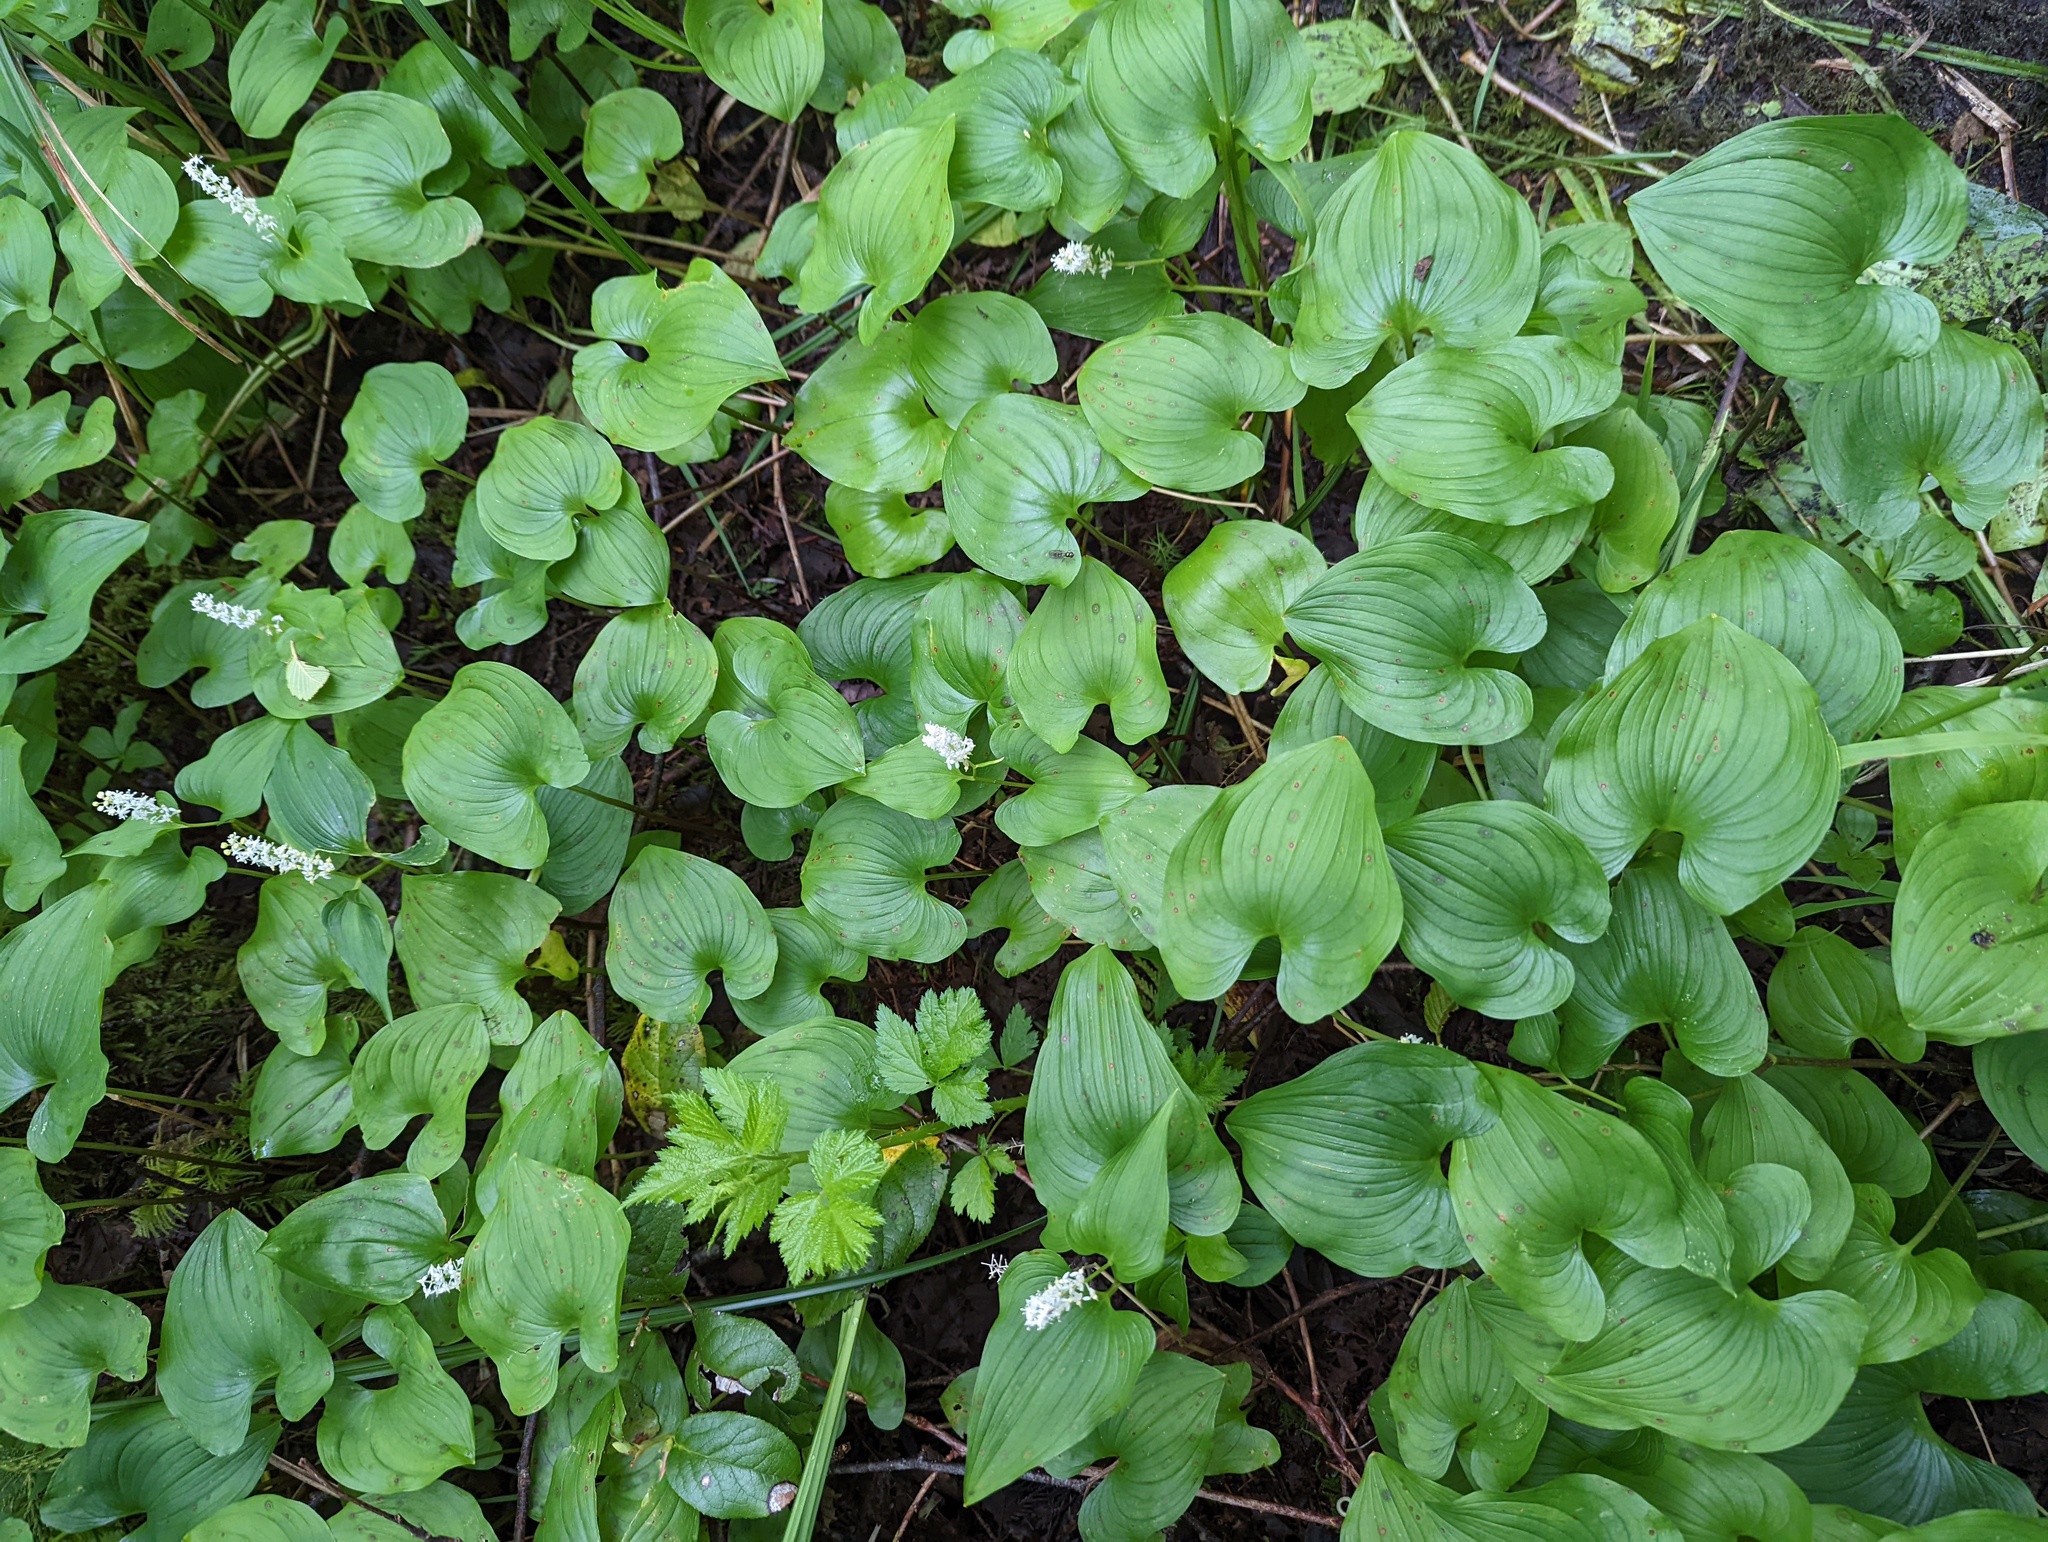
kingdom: Plantae
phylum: Tracheophyta
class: Liliopsida
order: Asparagales
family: Asparagaceae
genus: Maianthemum
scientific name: Maianthemum dilatatum
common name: False lily-of-the-valley
